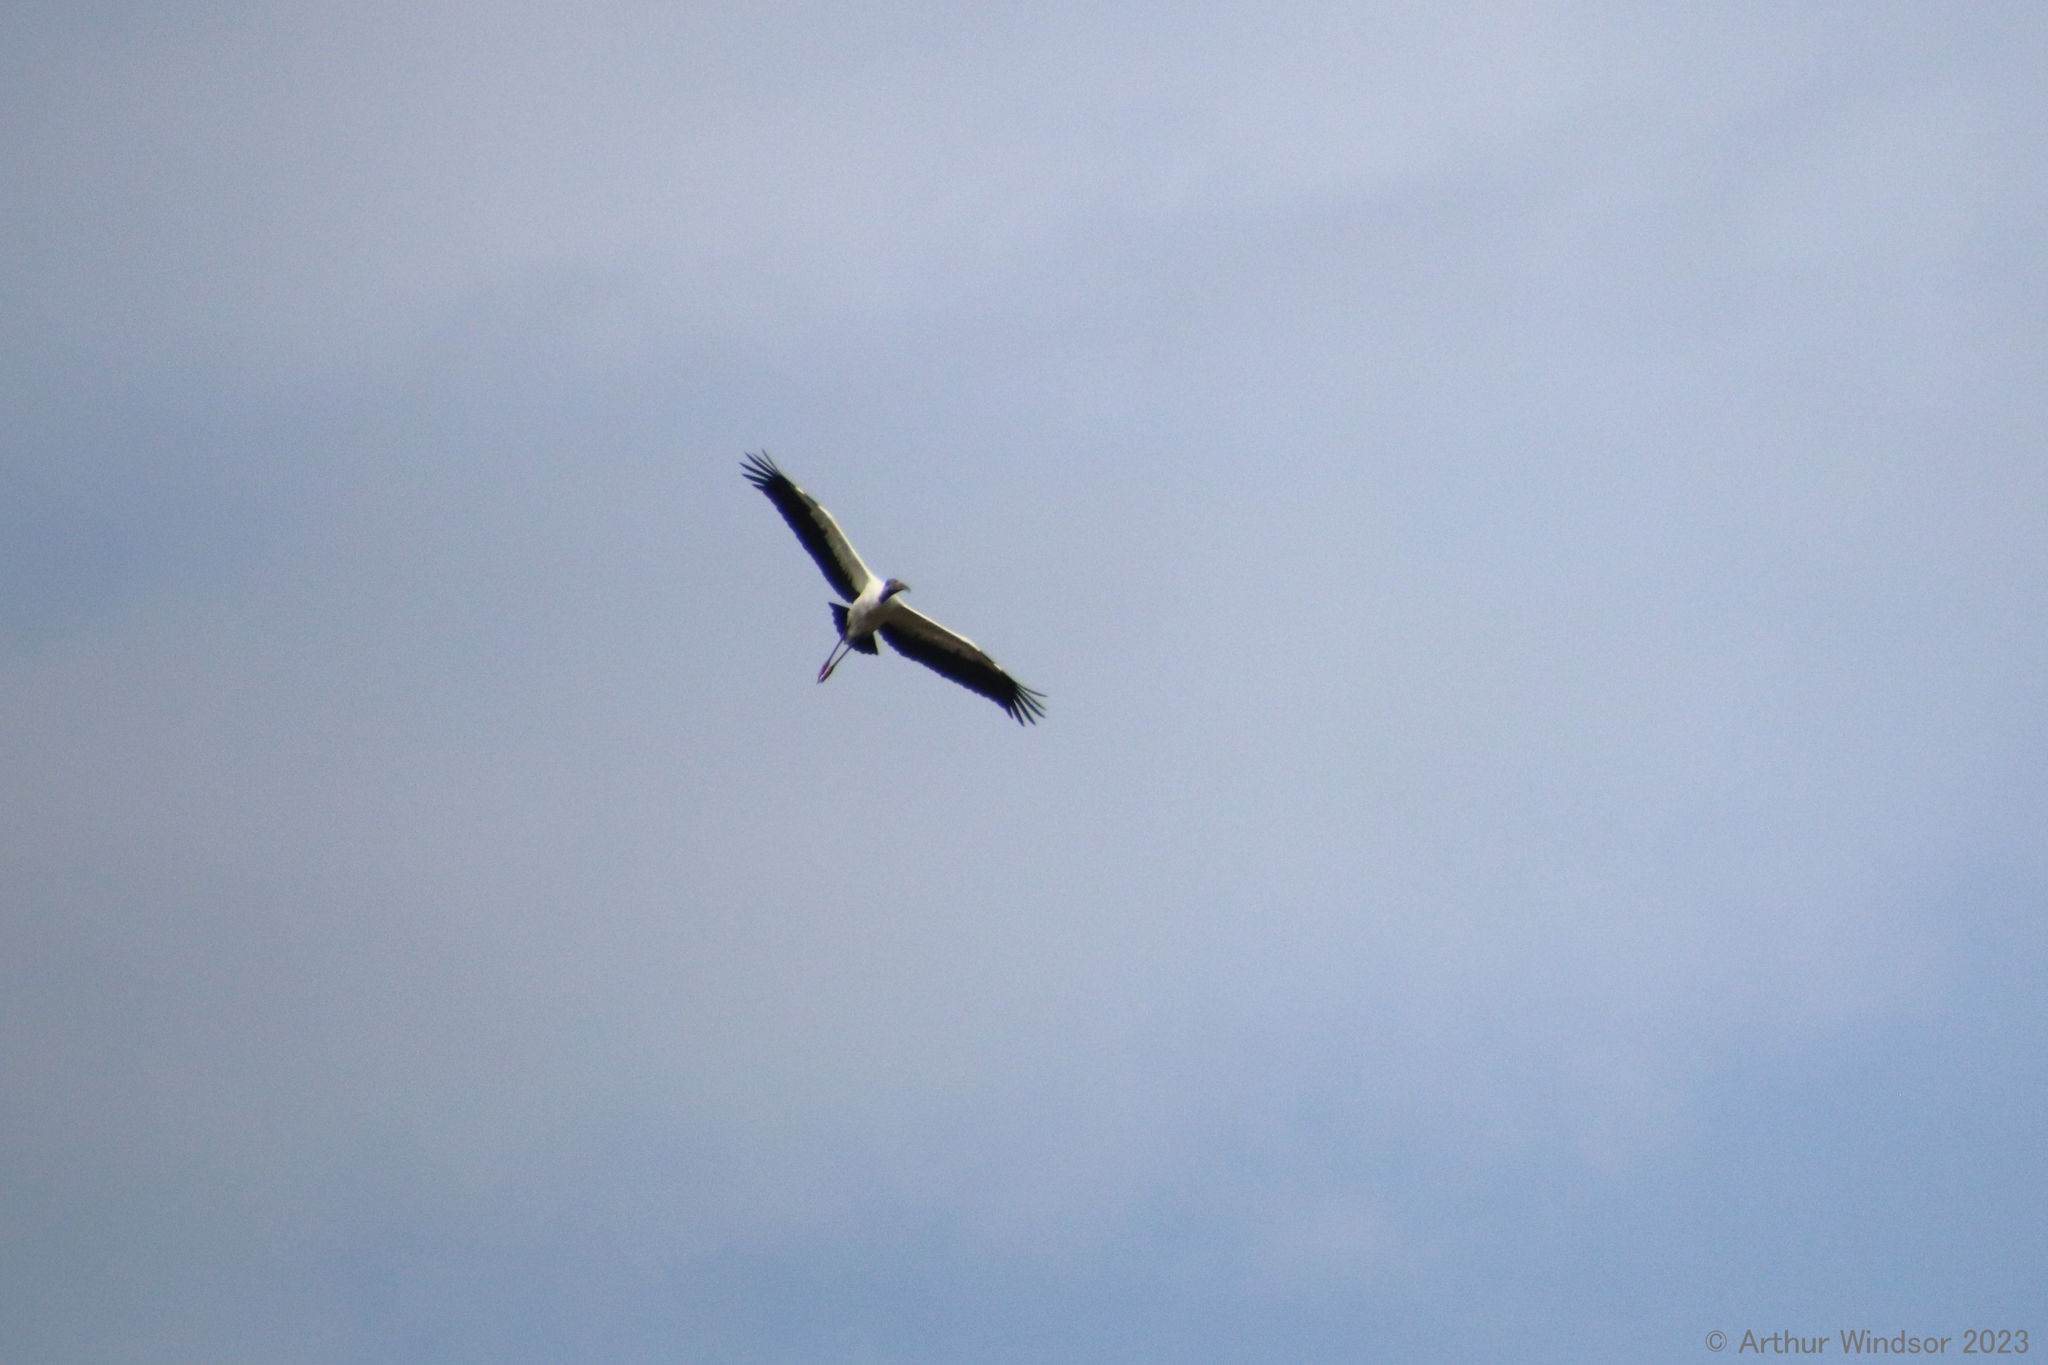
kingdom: Animalia
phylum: Chordata
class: Aves
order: Ciconiiformes
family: Ciconiidae
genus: Mycteria
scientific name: Mycteria americana
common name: Wood stork
